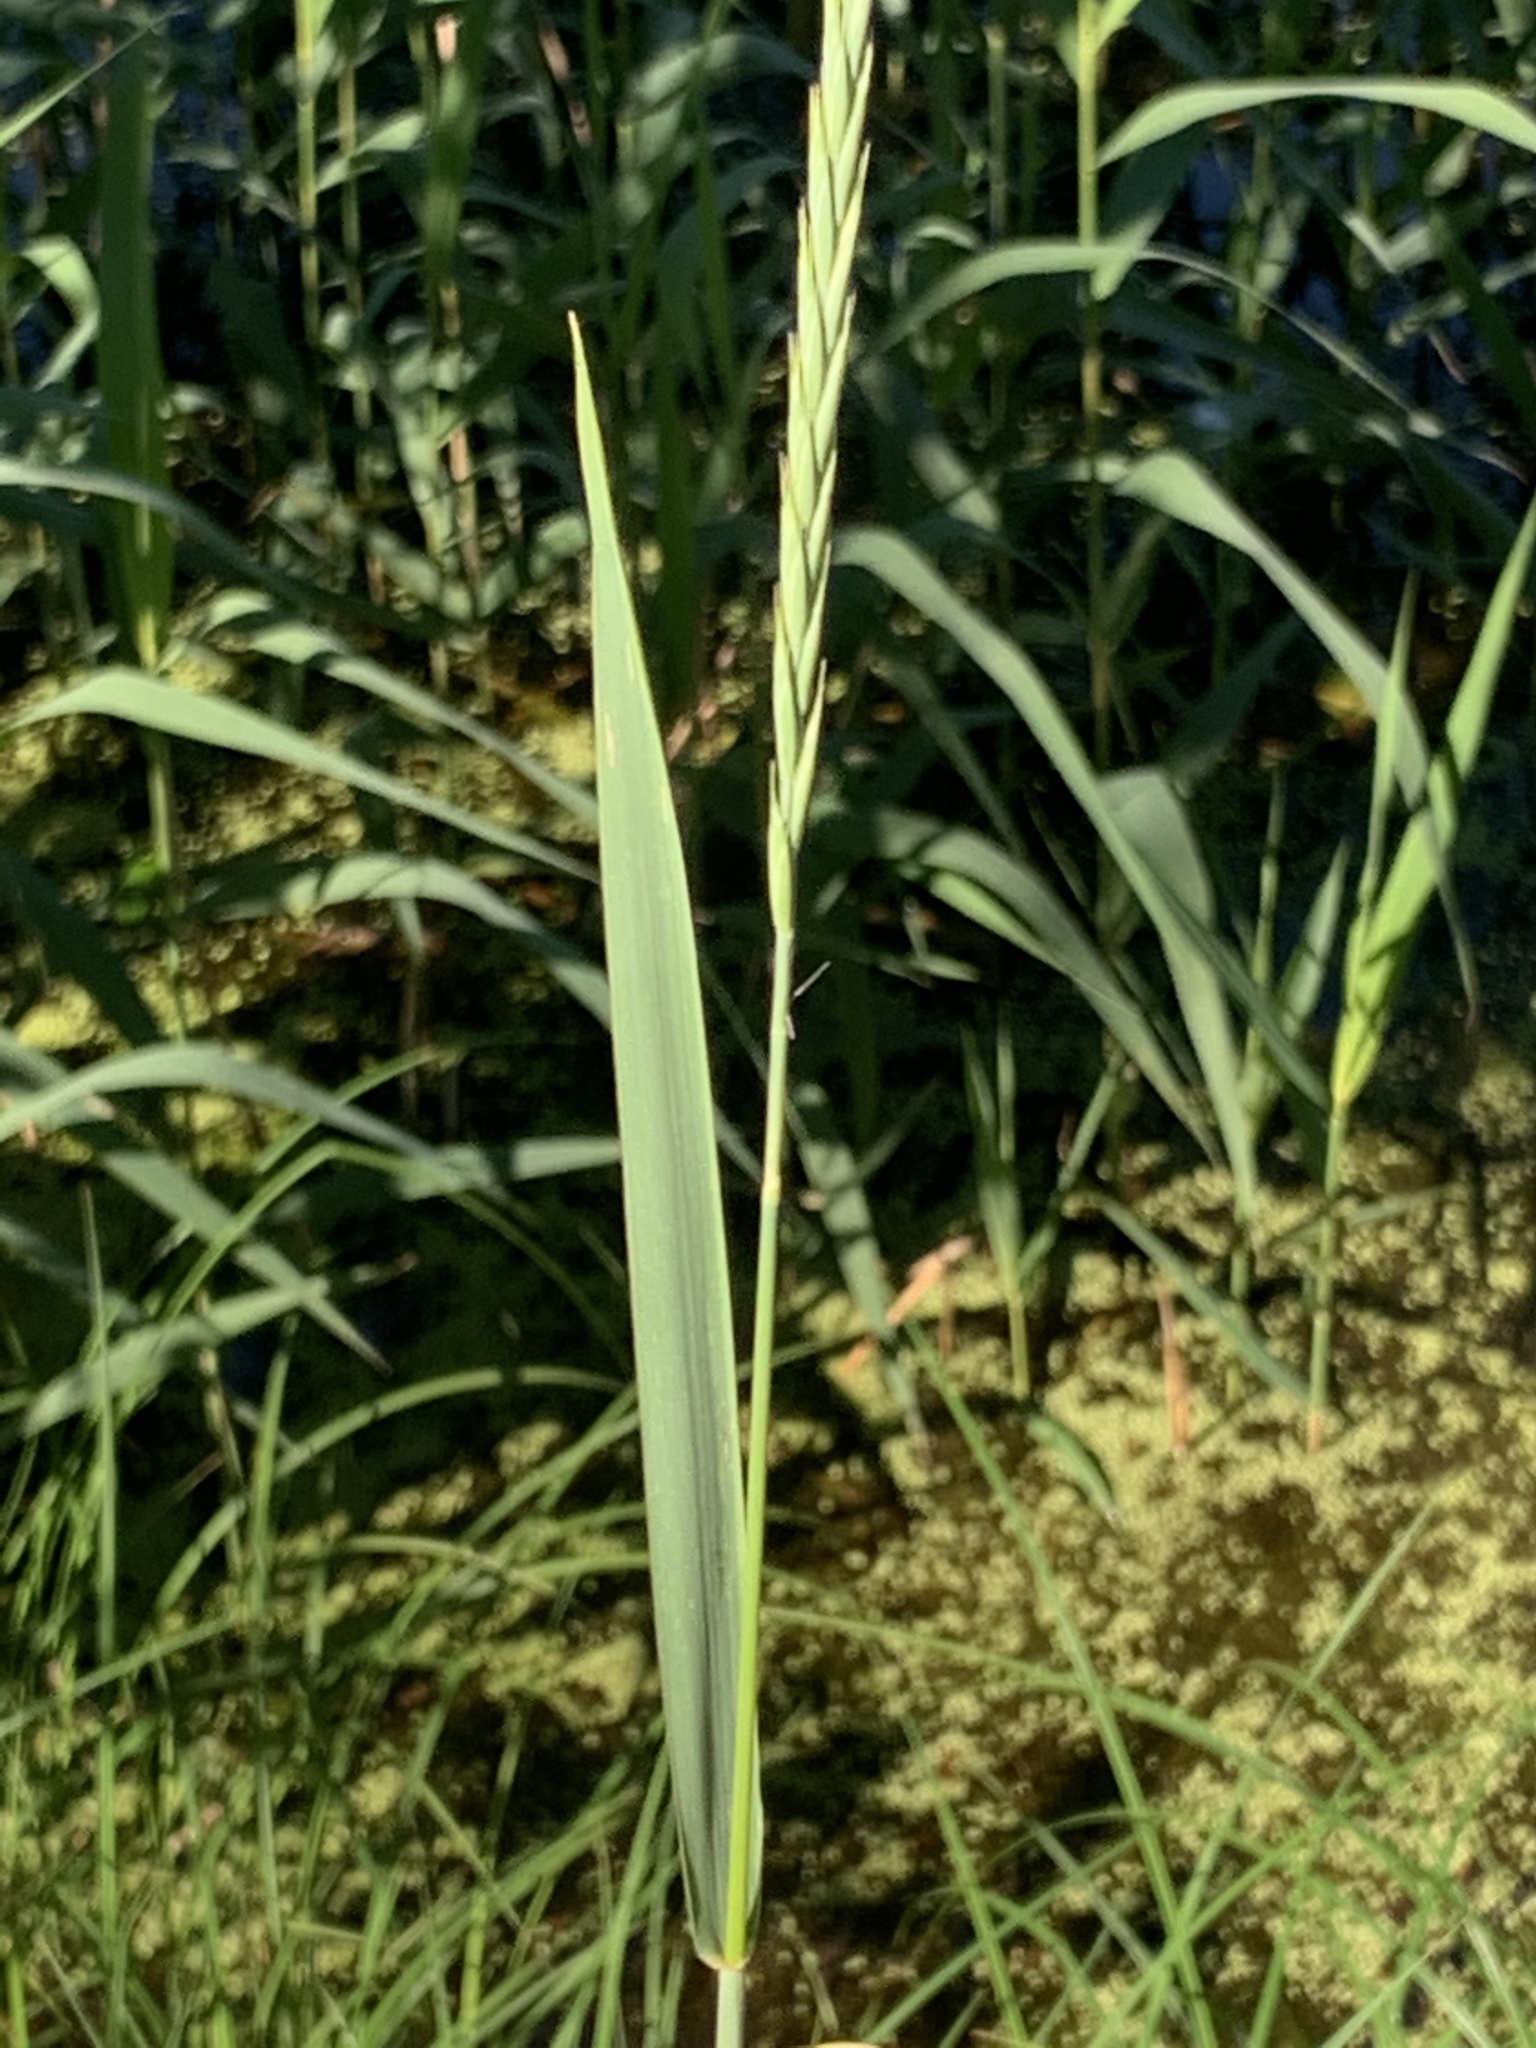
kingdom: Plantae
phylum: Tracheophyta
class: Liliopsida
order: Poales
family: Poaceae
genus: Elymus
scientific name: Elymus repens
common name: Quackgrass
